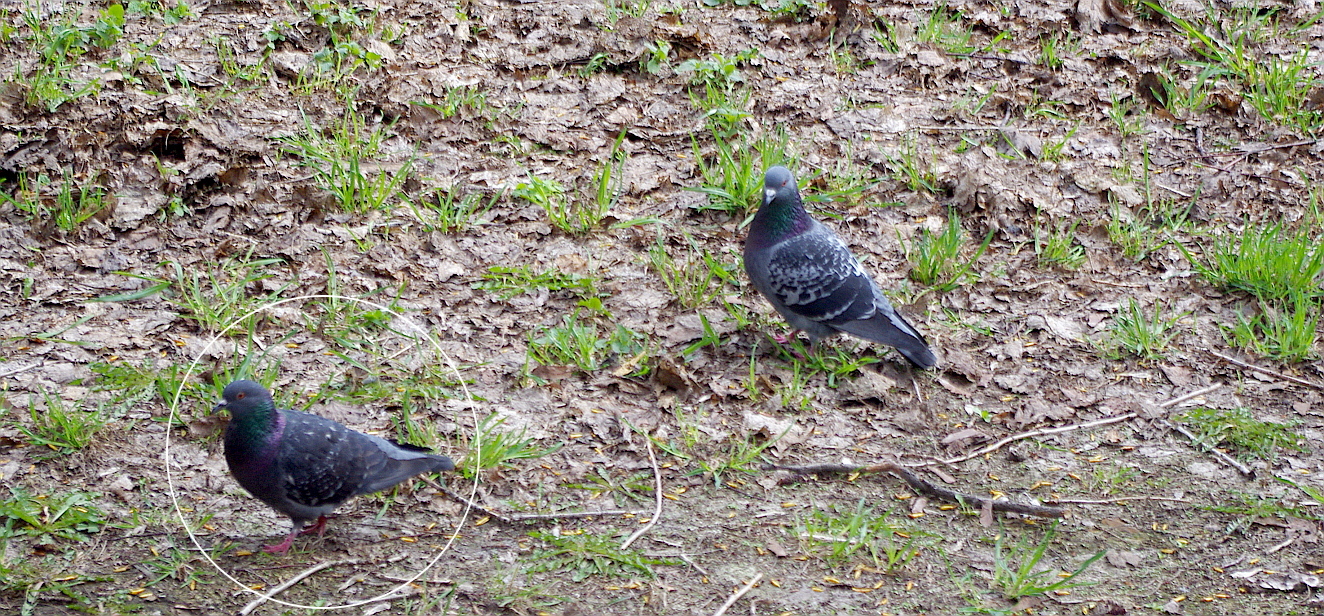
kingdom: Animalia
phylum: Chordata
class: Aves
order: Columbiformes
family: Columbidae
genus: Columba
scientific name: Columba livia
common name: Rock pigeon
